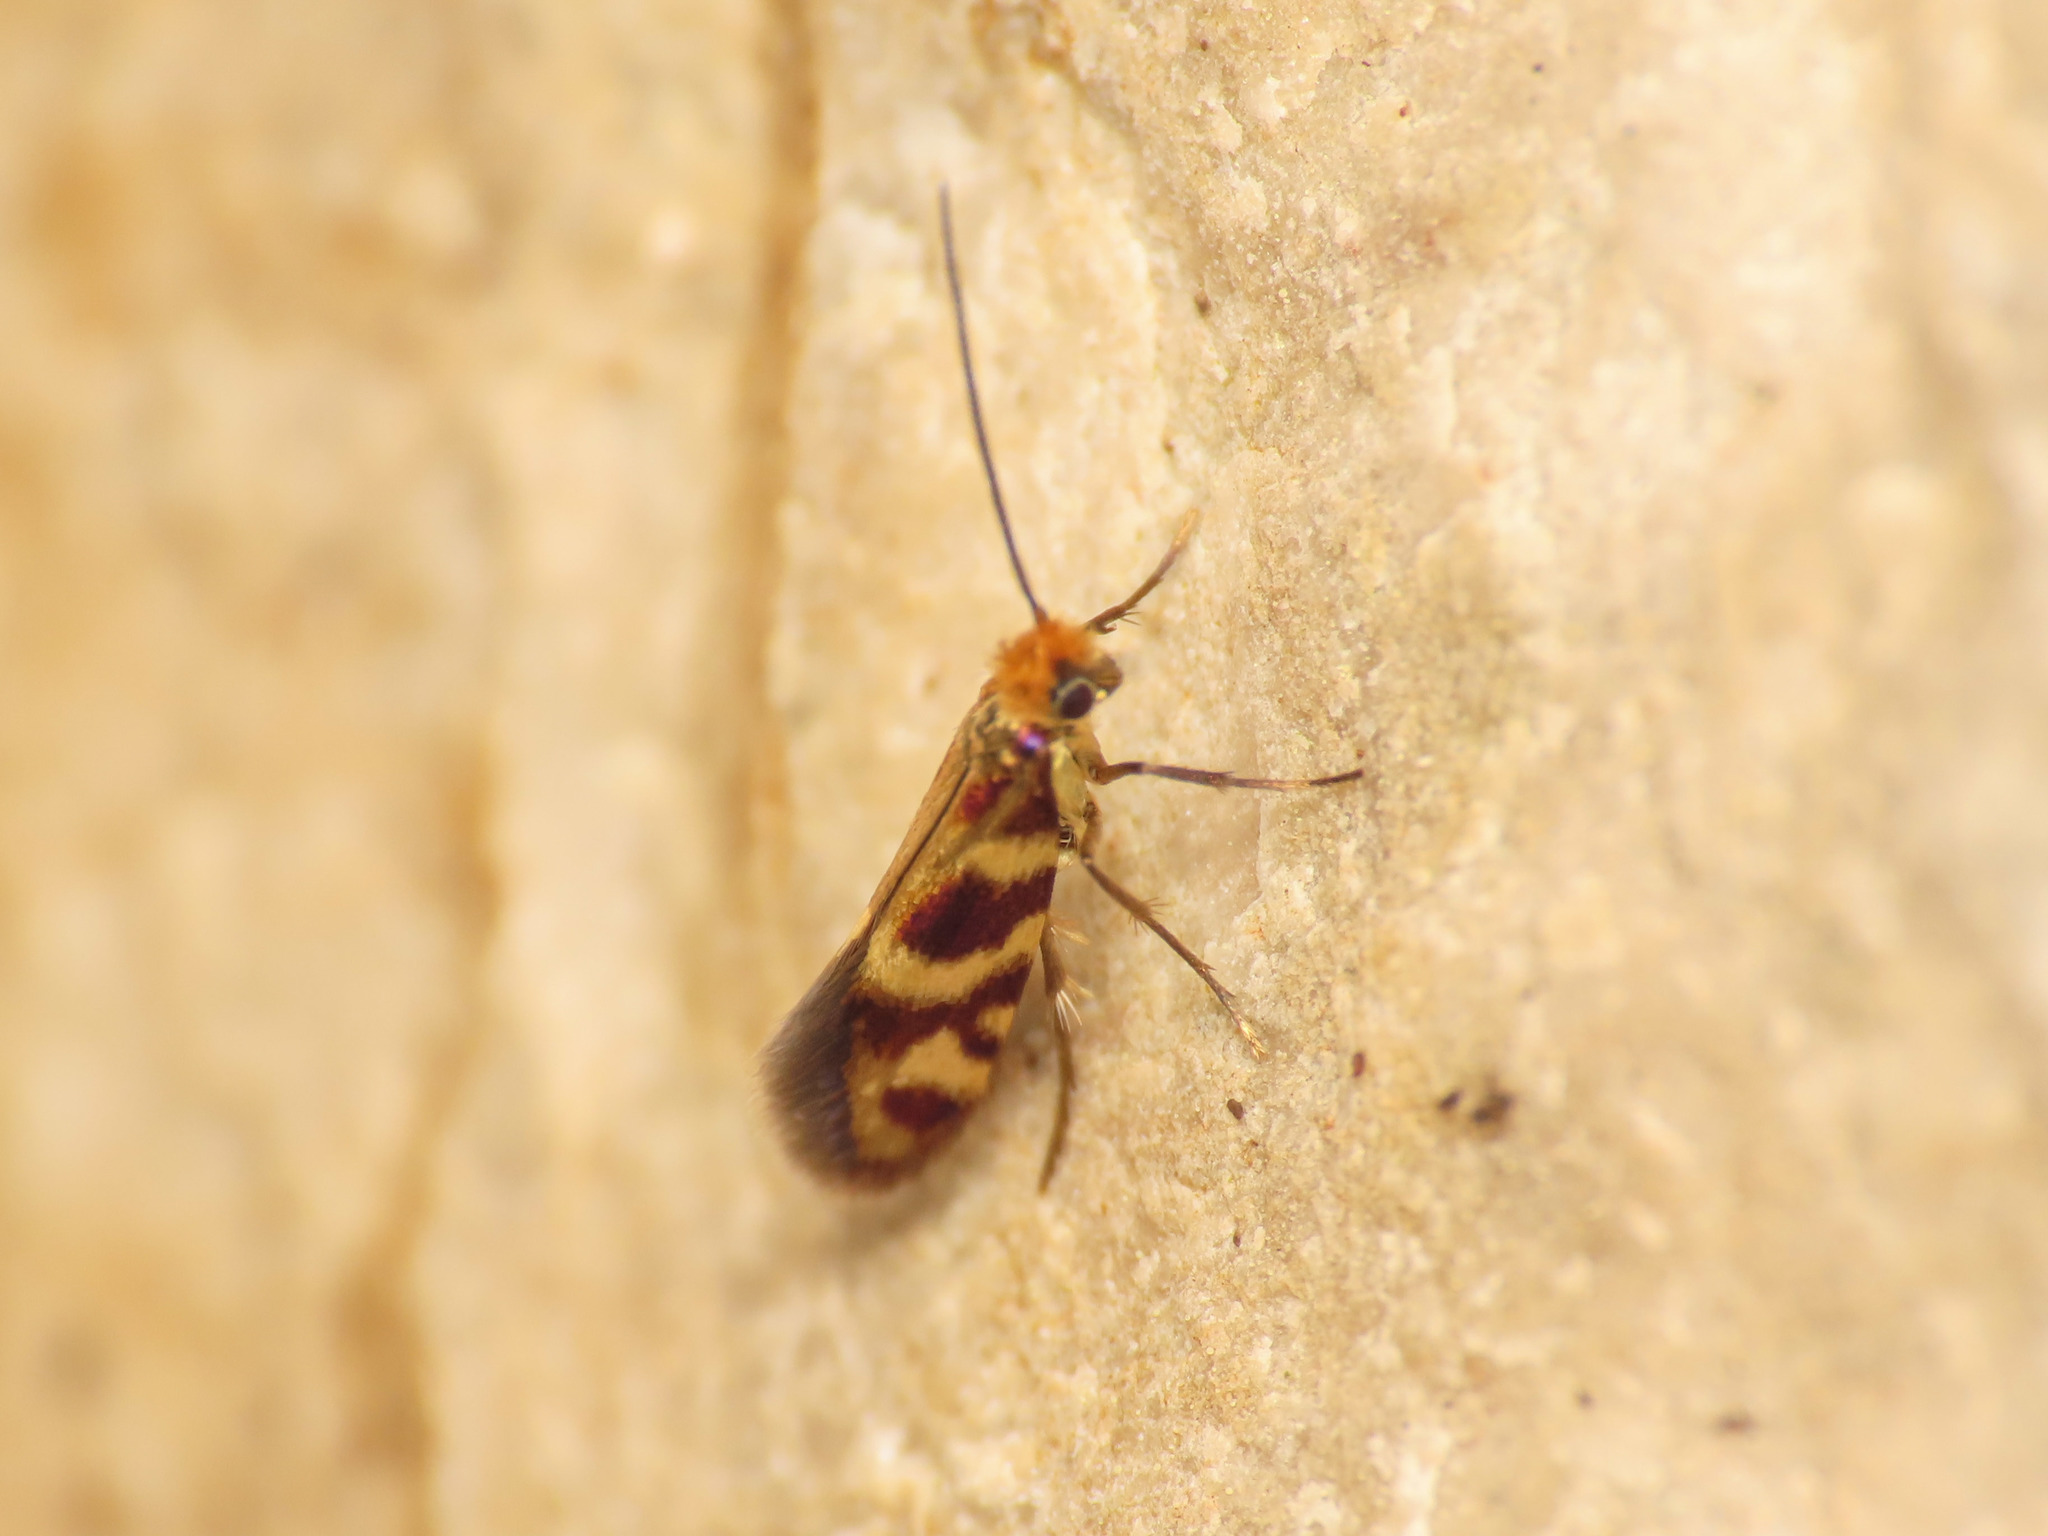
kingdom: Animalia
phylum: Arthropoda
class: Insecta
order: Lepidoptera
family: Micropterigidae
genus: Micropterix
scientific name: Micropterix vulturensis
